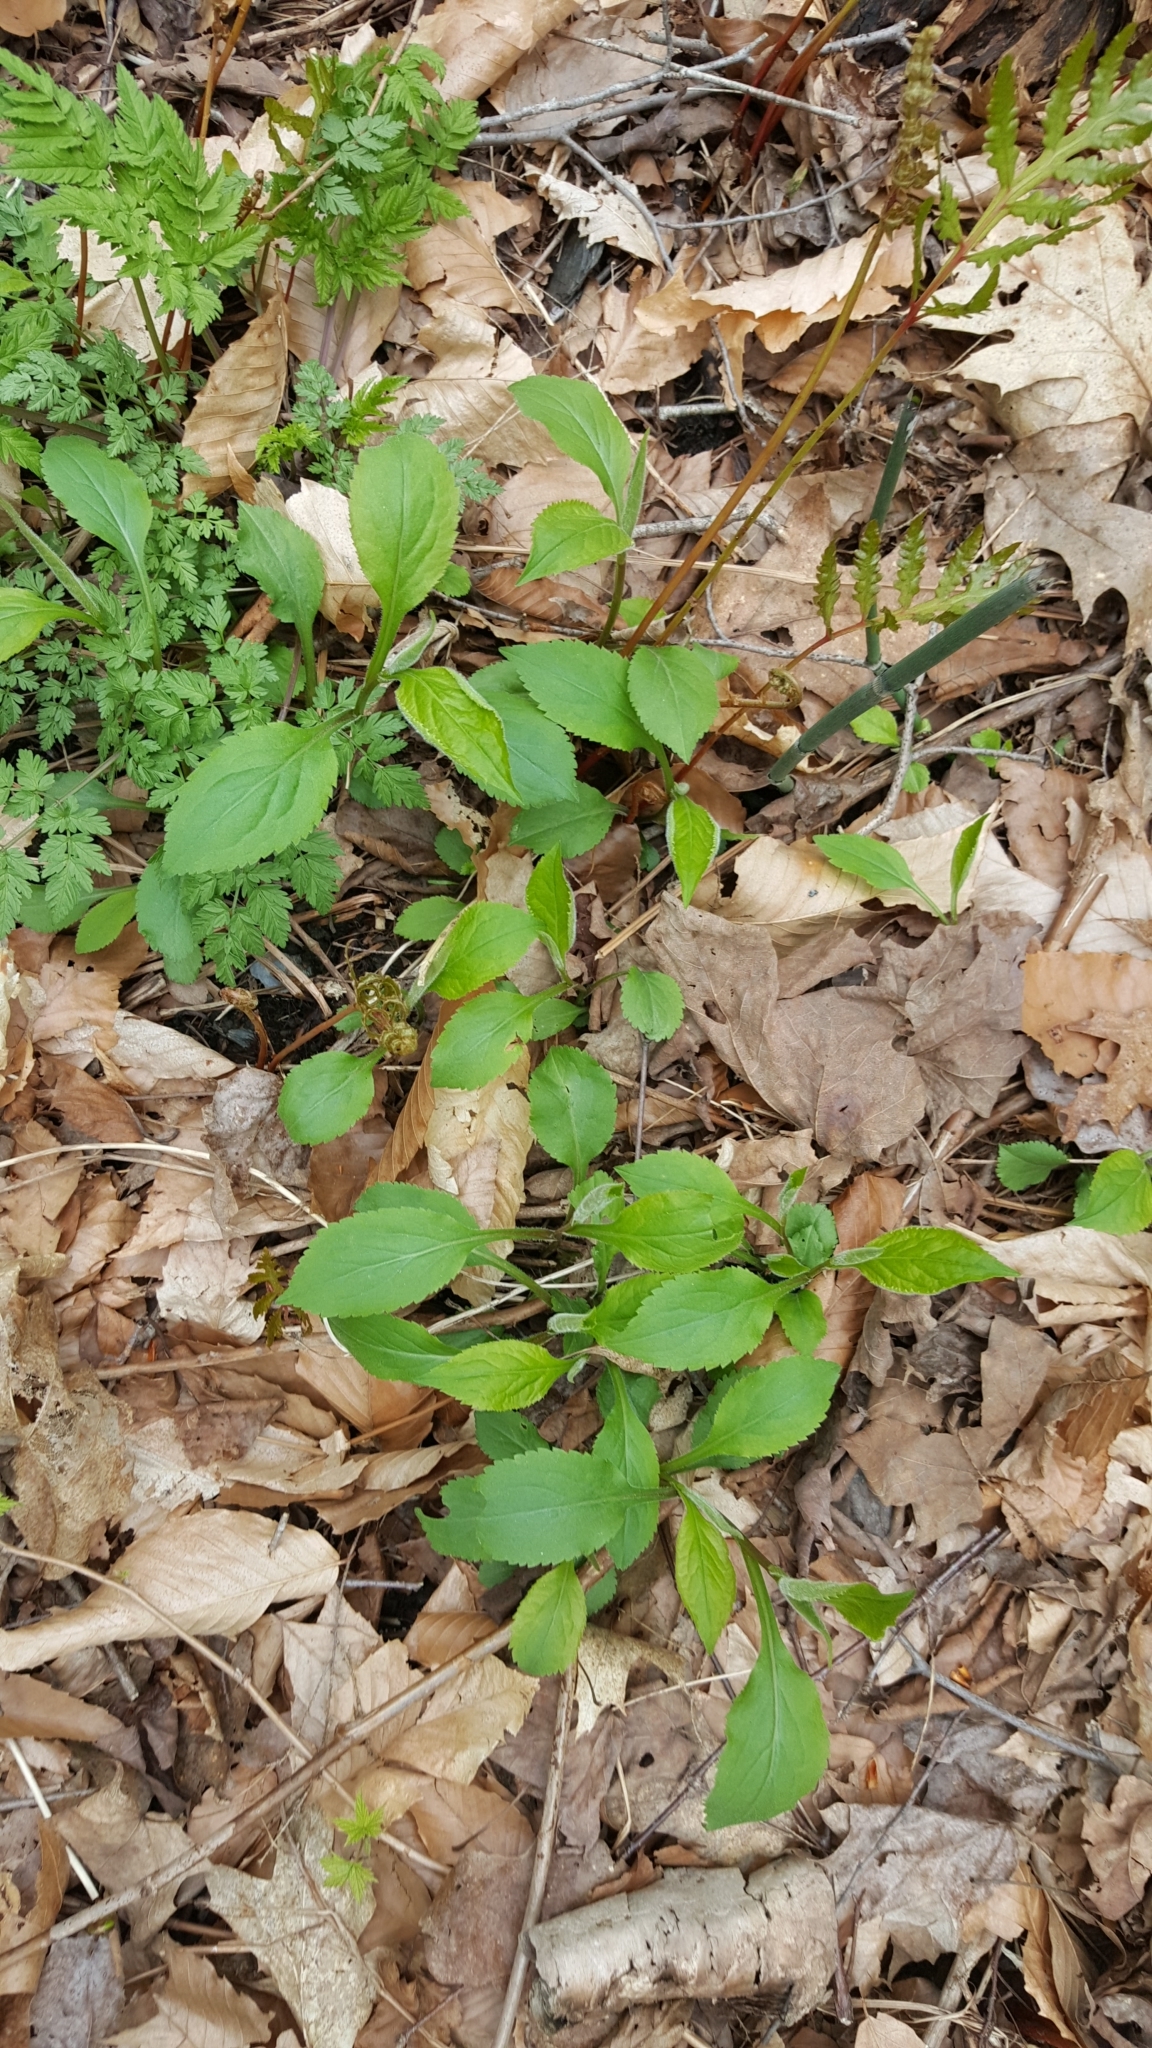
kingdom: Plantae
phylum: Tracheophyta
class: Magnoliopsida
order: Asterales
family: Asteraceae
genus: Solidago
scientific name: Solidago flexicaulis
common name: Zig-zag goldenrod
